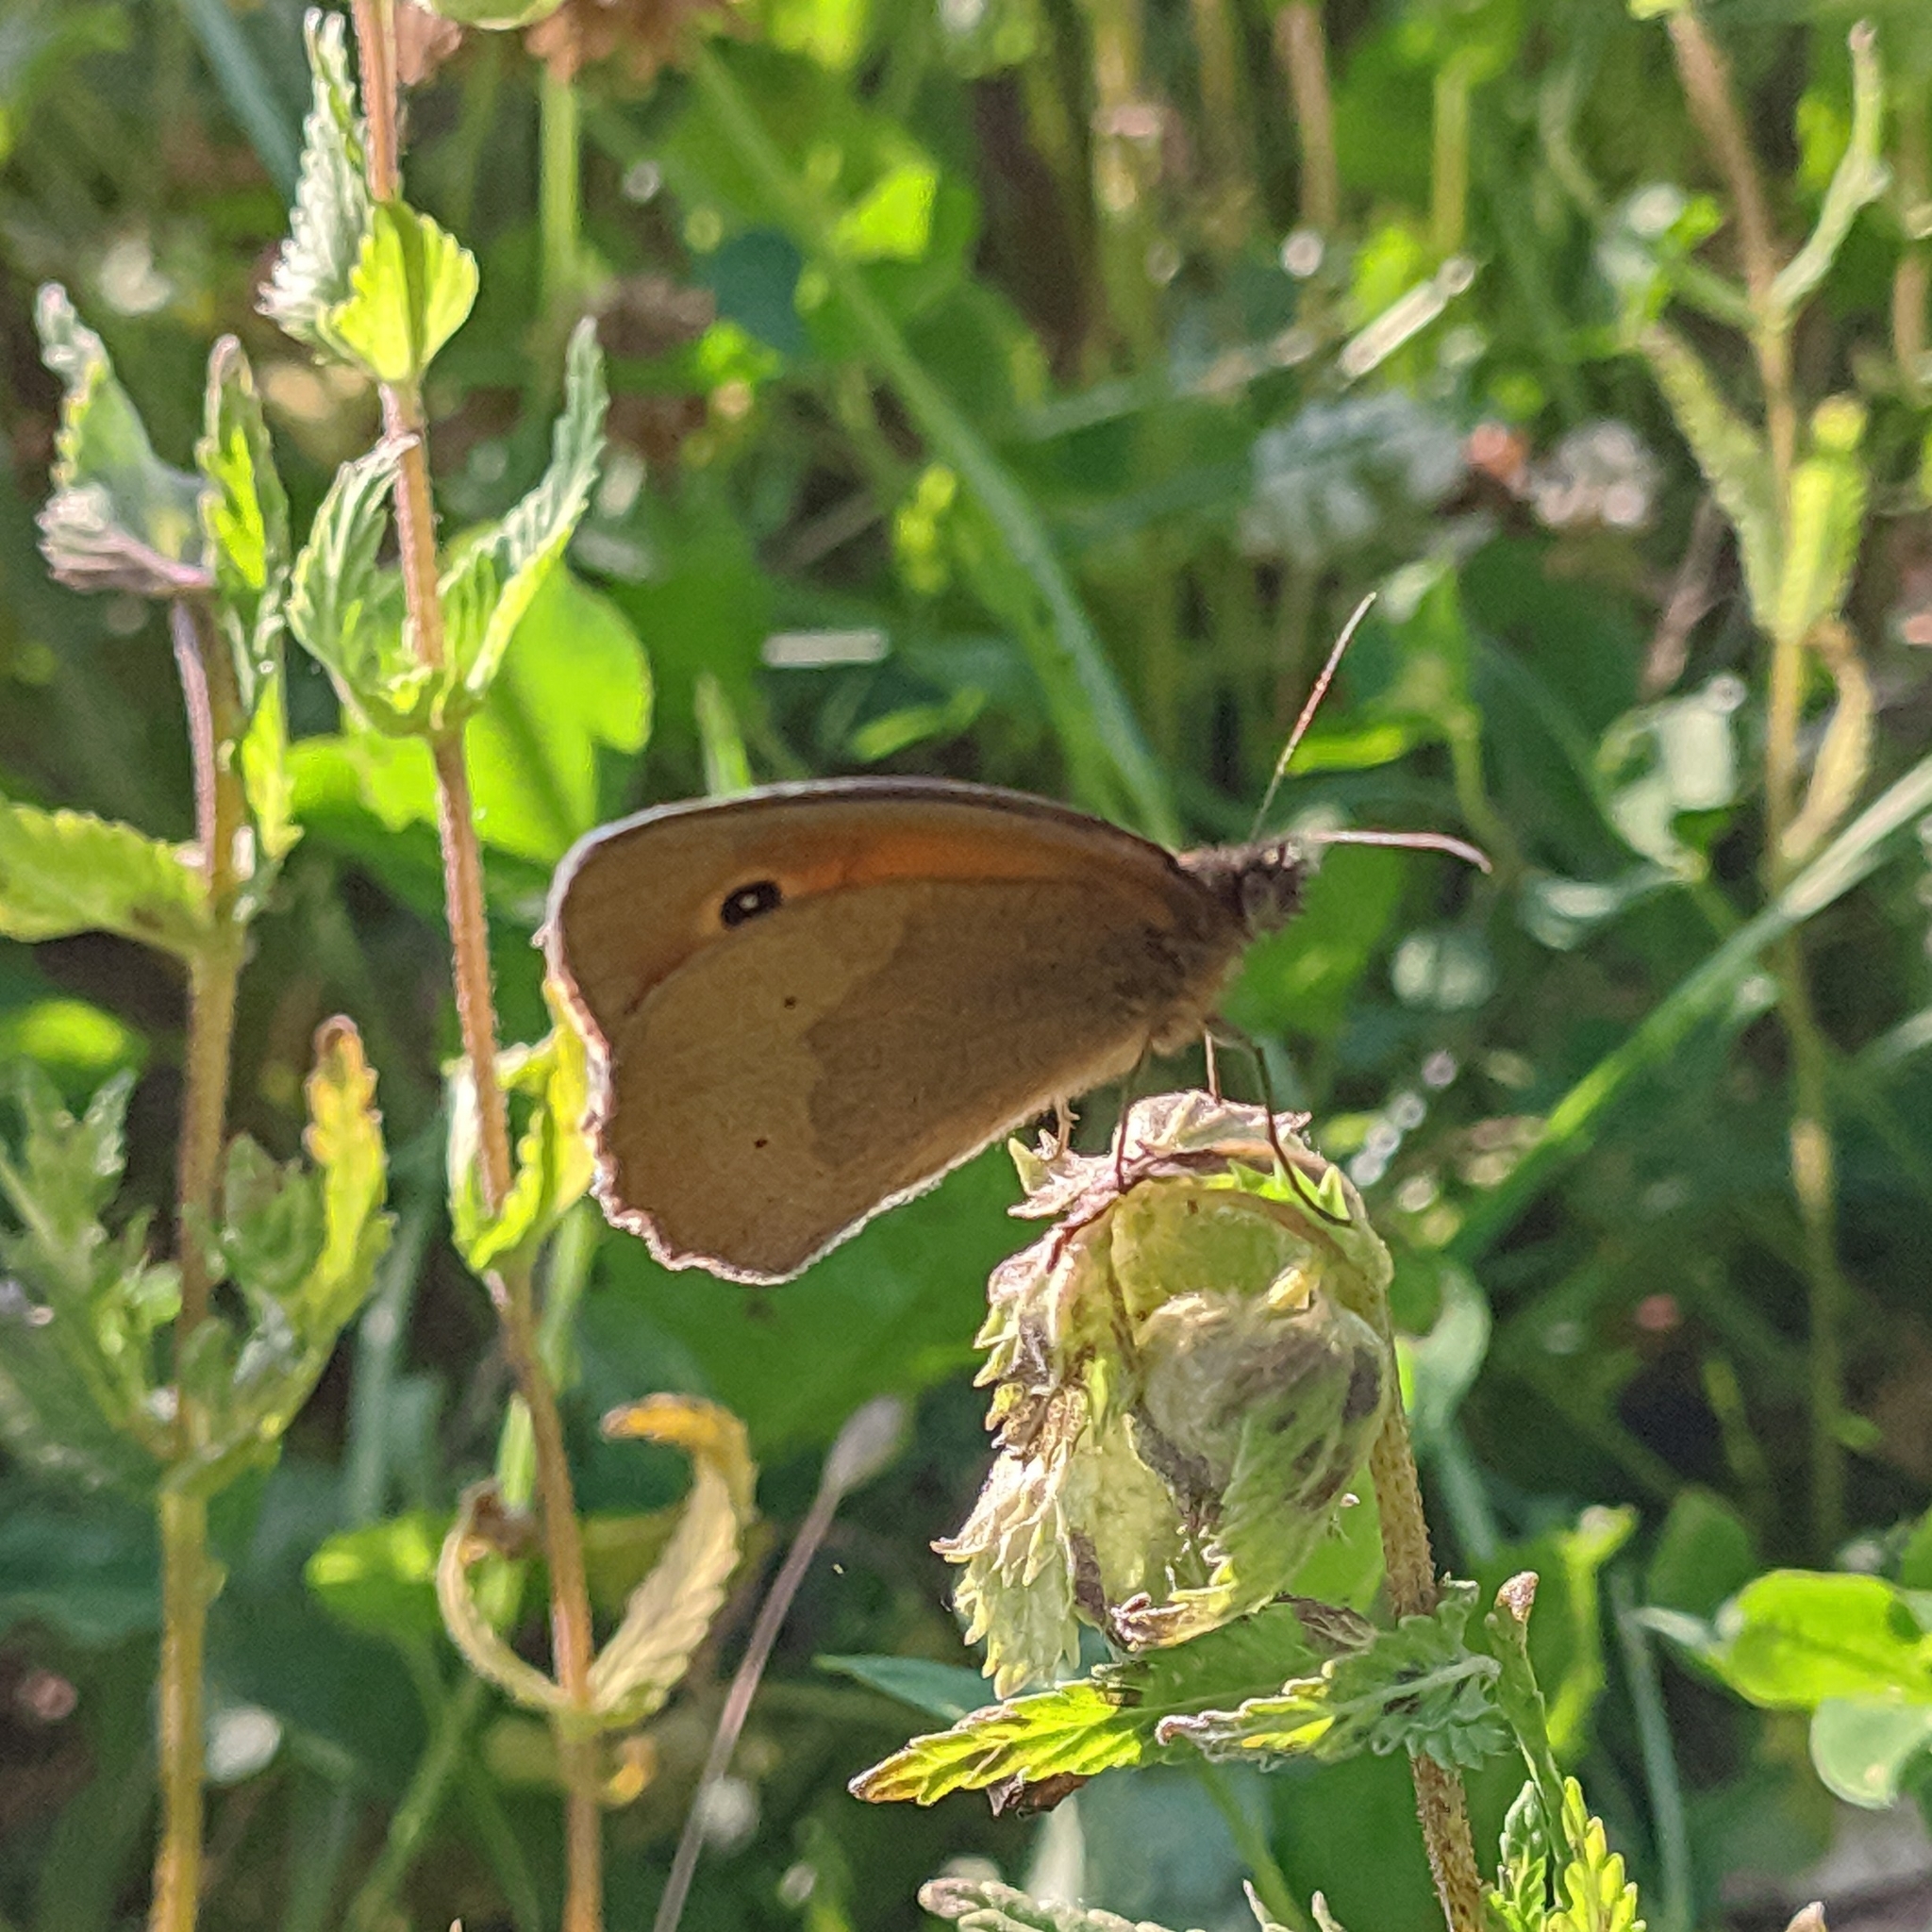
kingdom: Animalia
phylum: Arthropoda
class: Insecta
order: Lepidoptera
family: Nymphalidae
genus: Maniola
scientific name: Maniola jurtina
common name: Meadow brown
